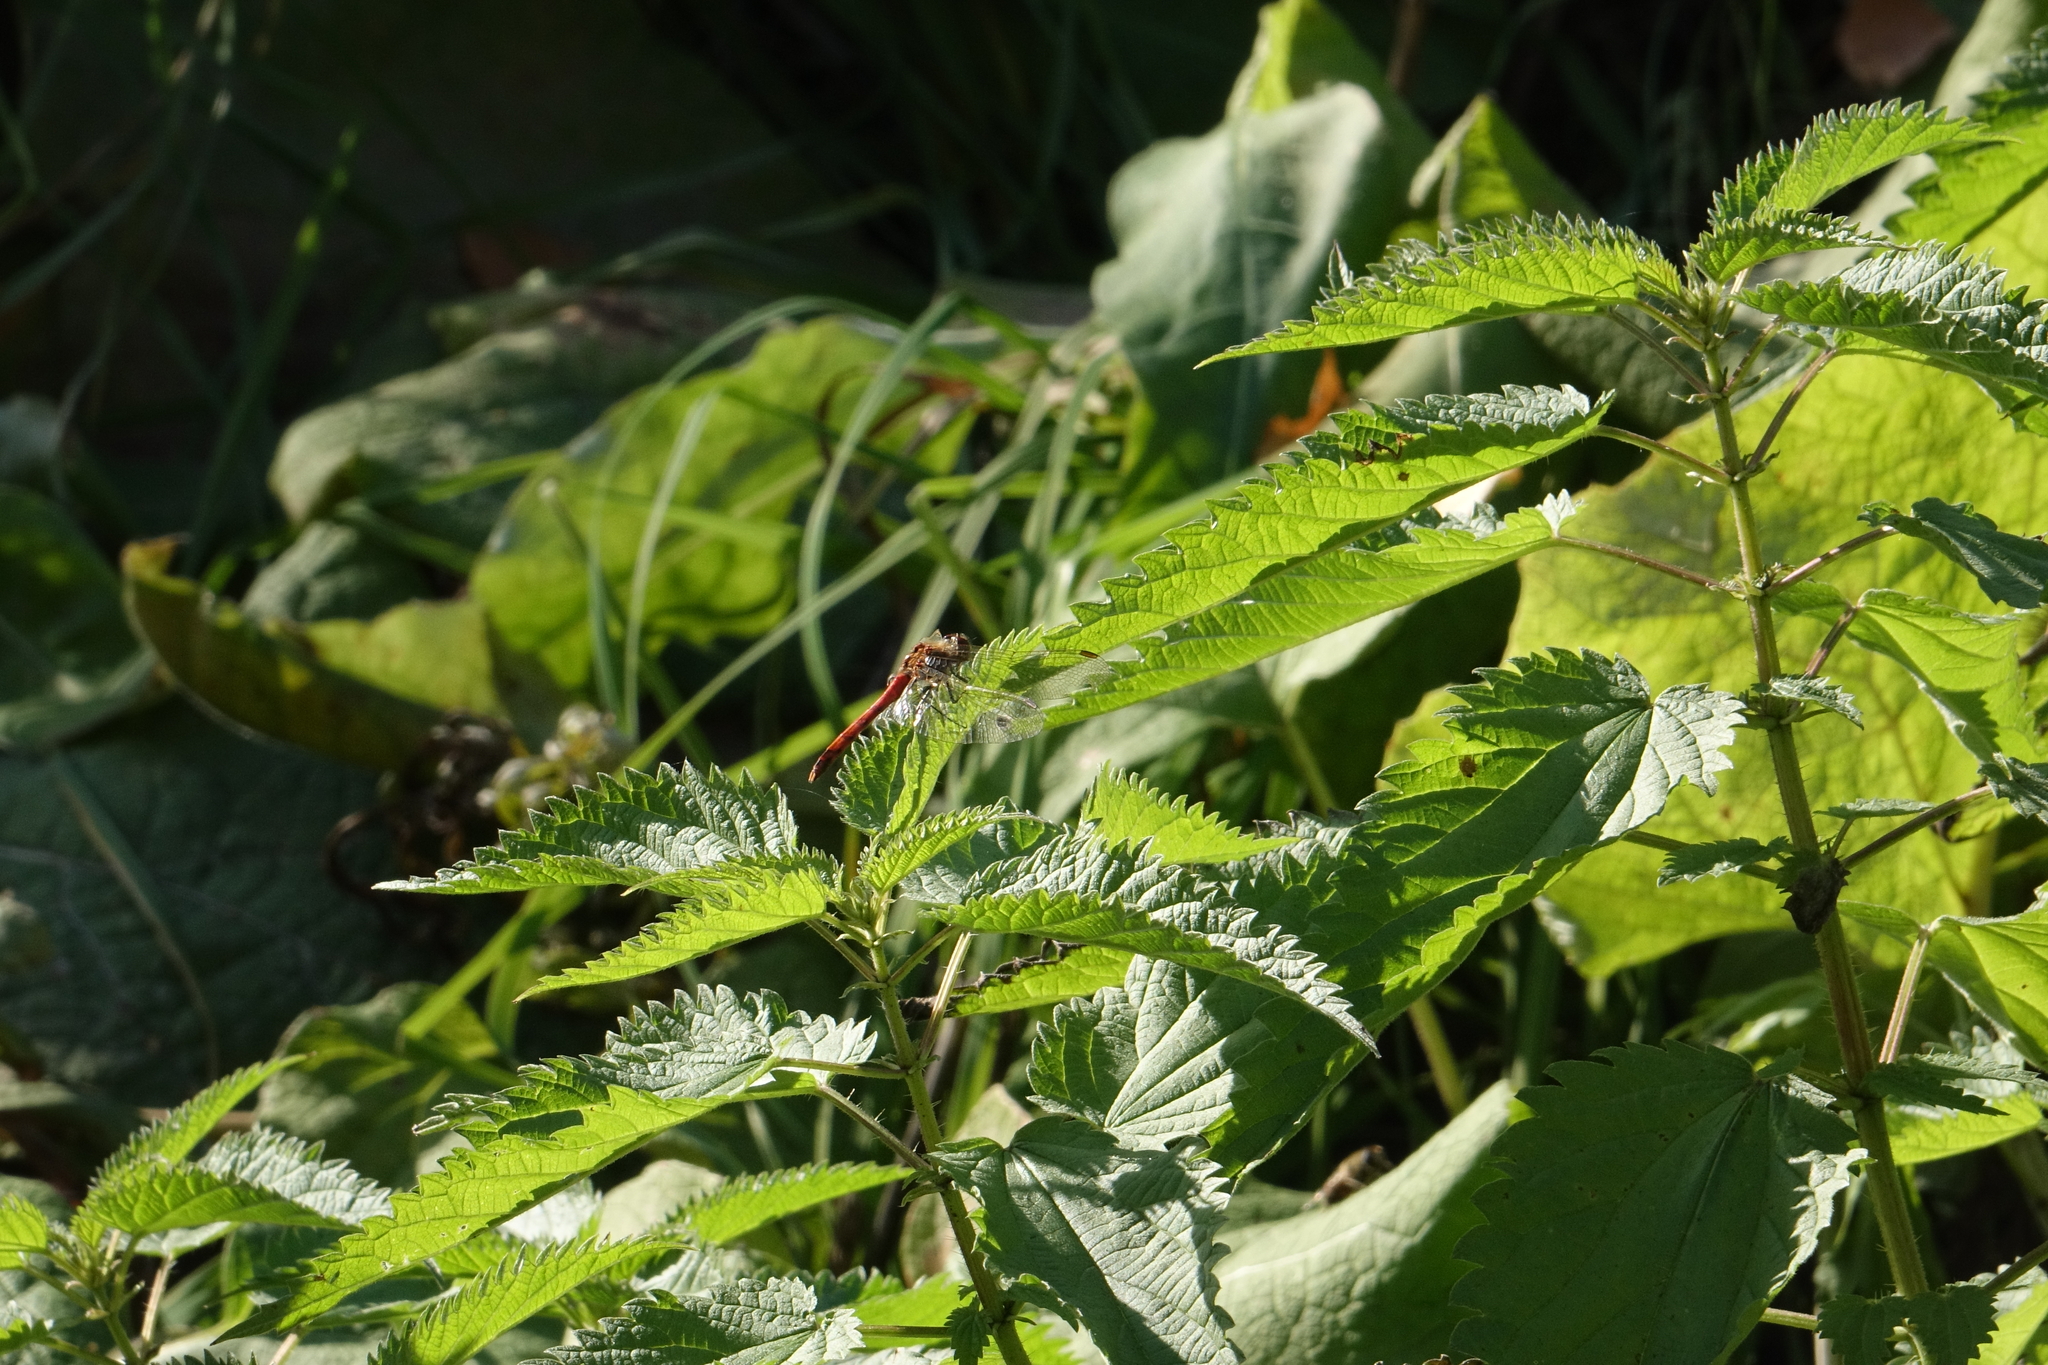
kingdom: Plantae
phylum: Tracheophyta
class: Magnoliopsida
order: Rosales
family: Urticaceae
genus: Urtica
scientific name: Urtica dioica
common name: Common nettle
